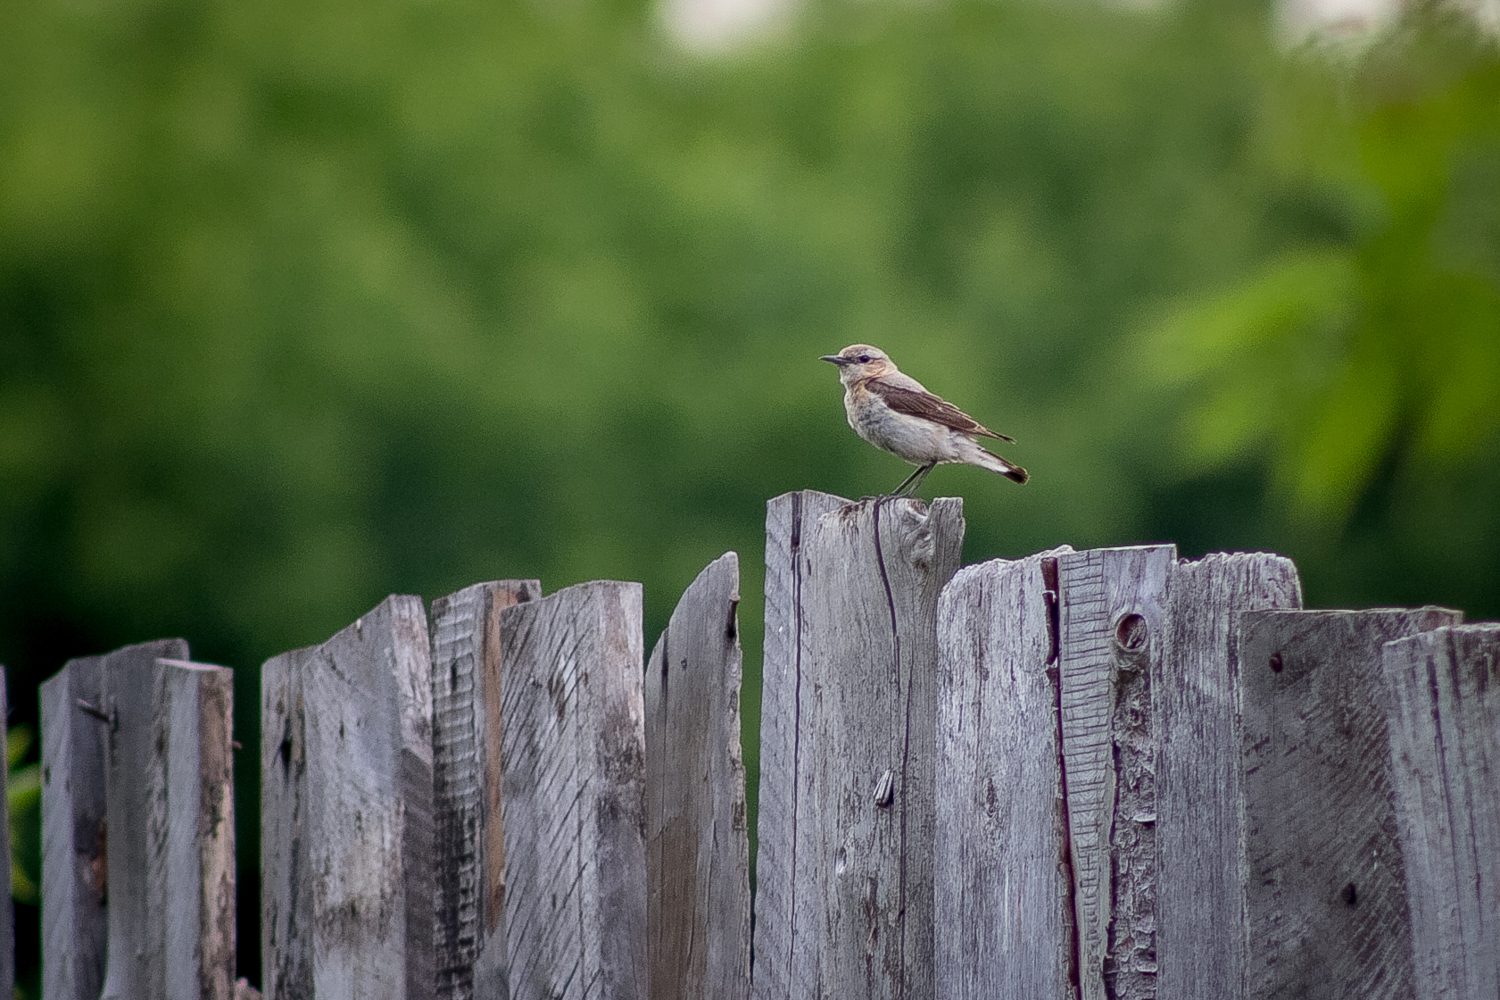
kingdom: Animalia
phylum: Chordata
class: Aves
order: Passeriformes
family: Muscicapidae
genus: Oenanthe
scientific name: Oenanthe oenanthe
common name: Northern wheatear
